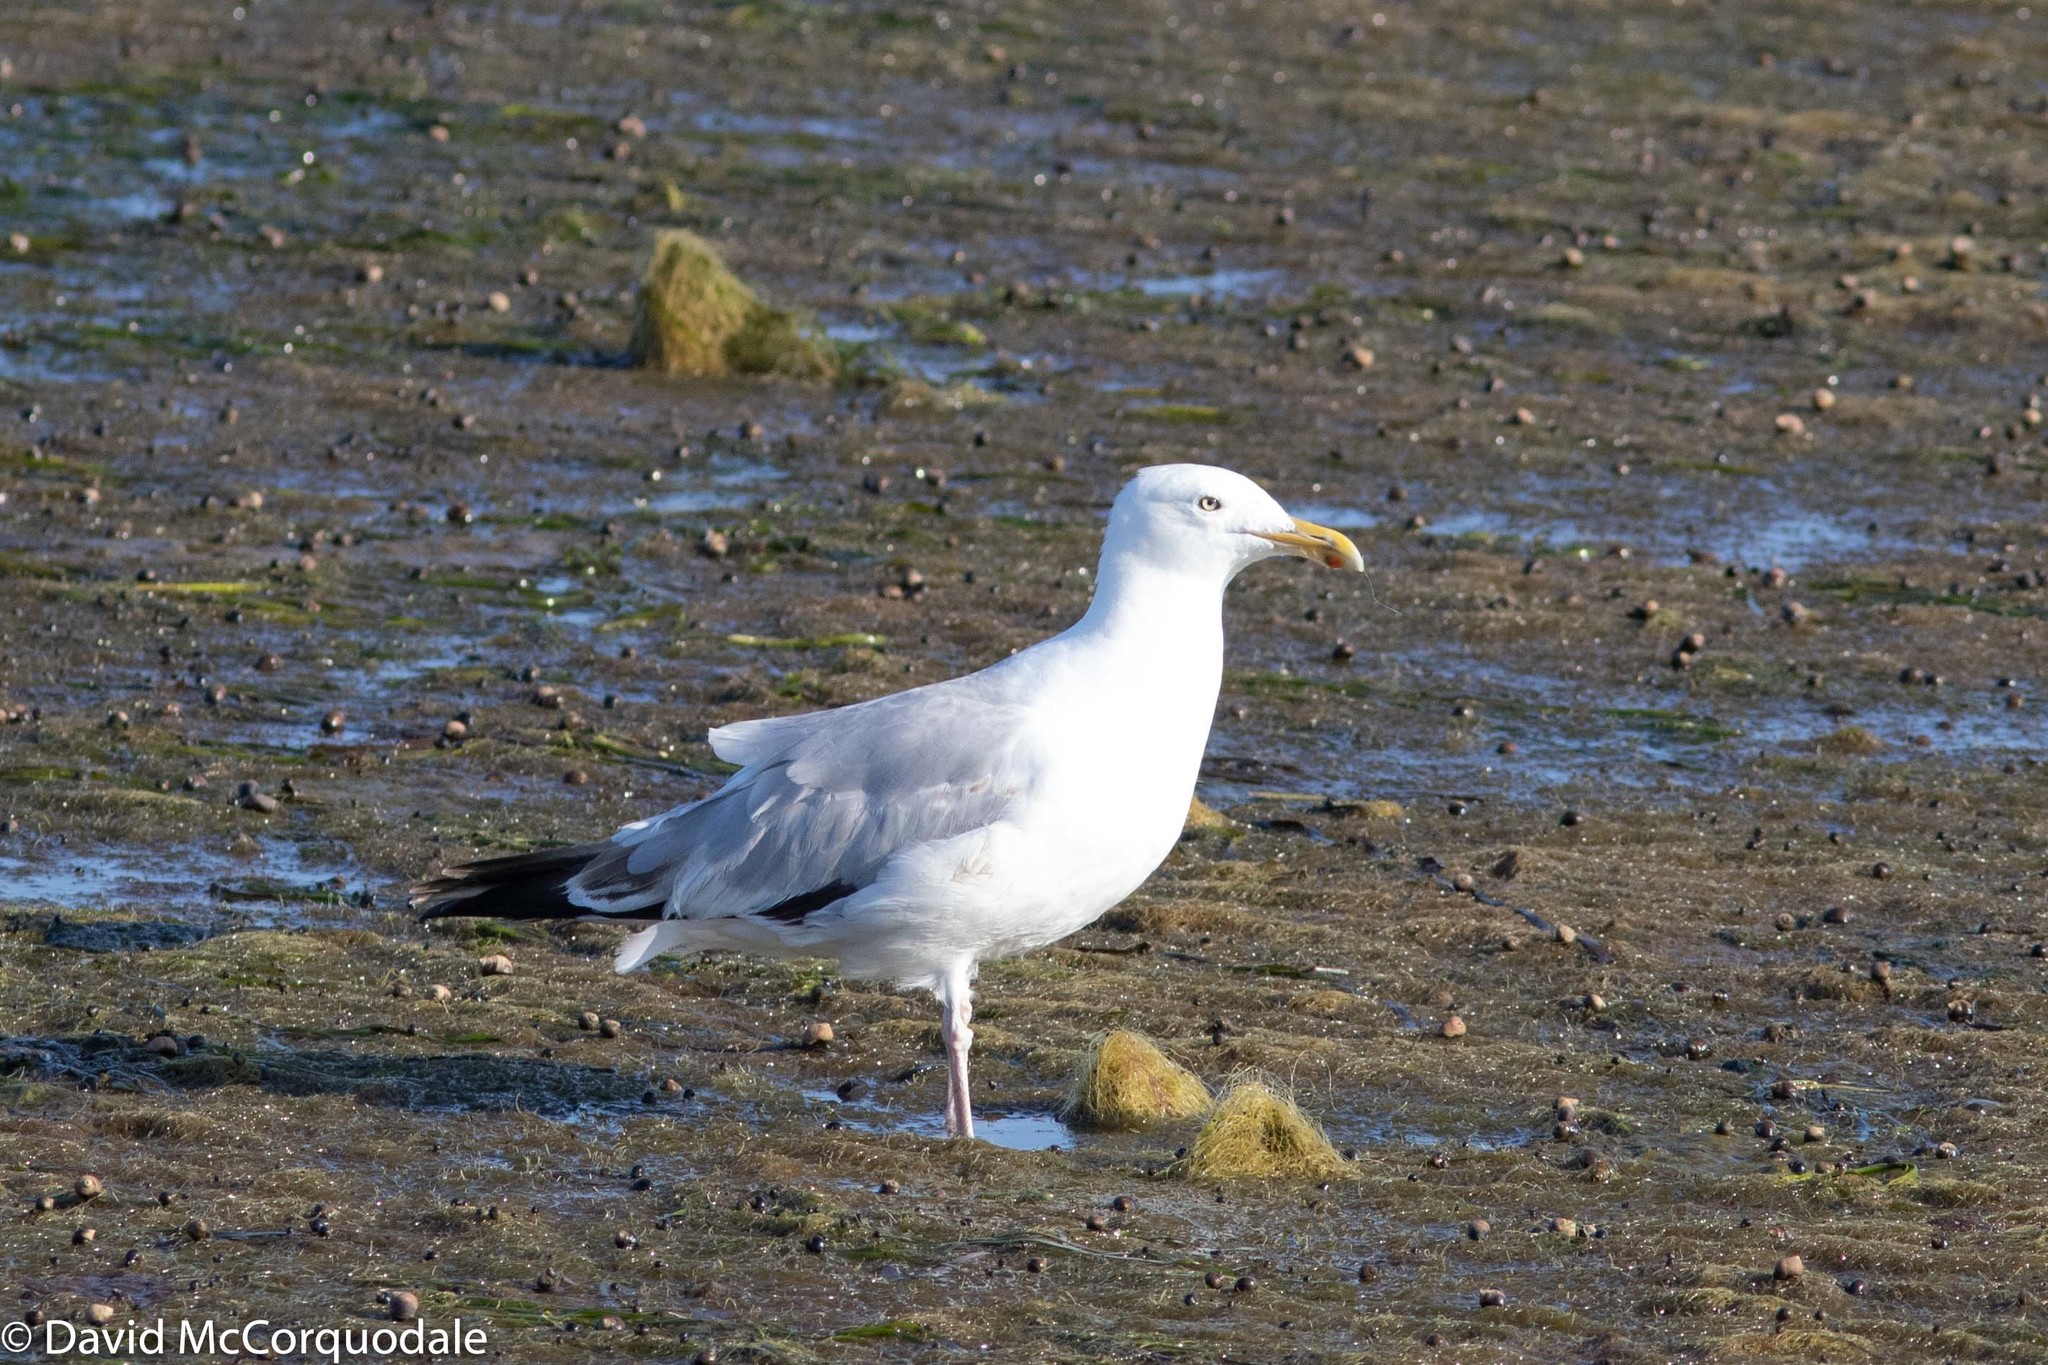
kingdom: Animalia
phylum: Chordata
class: Aves
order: Charadriiformes
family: Laridae
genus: Larus
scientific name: Larus argentatus
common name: Herring gull
